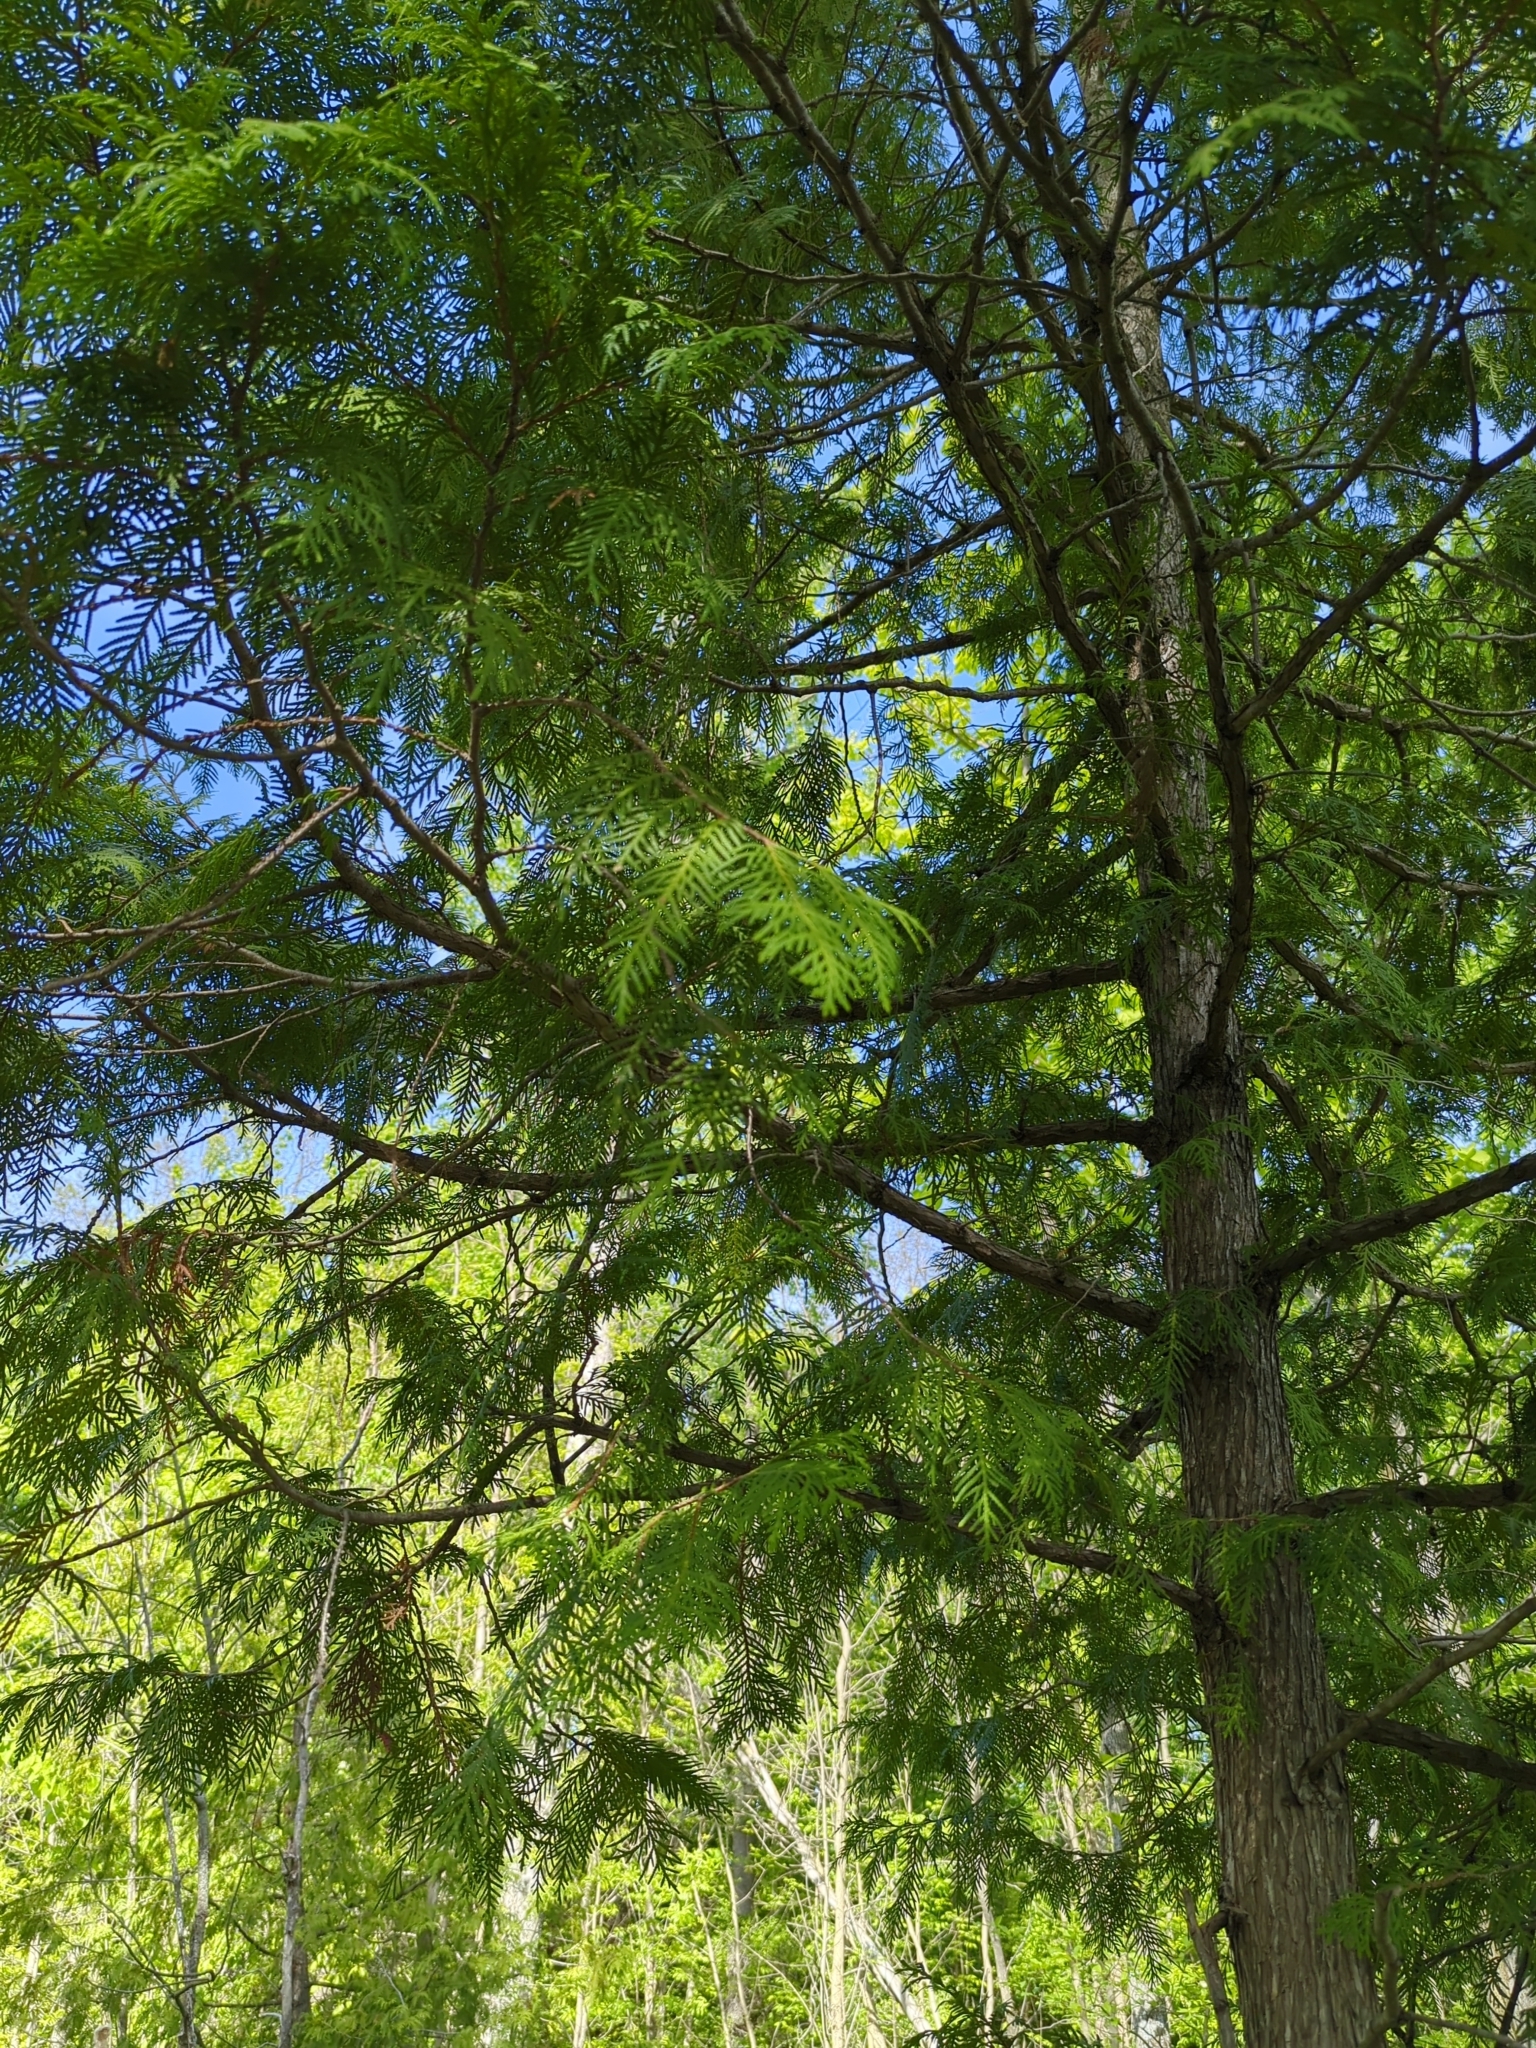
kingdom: Plantae
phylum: Tracheophyta
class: Pinopsida
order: Pinales
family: Cupressaceae
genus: Thuja
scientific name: Thuja occidentalis
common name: Northern white-cedar
